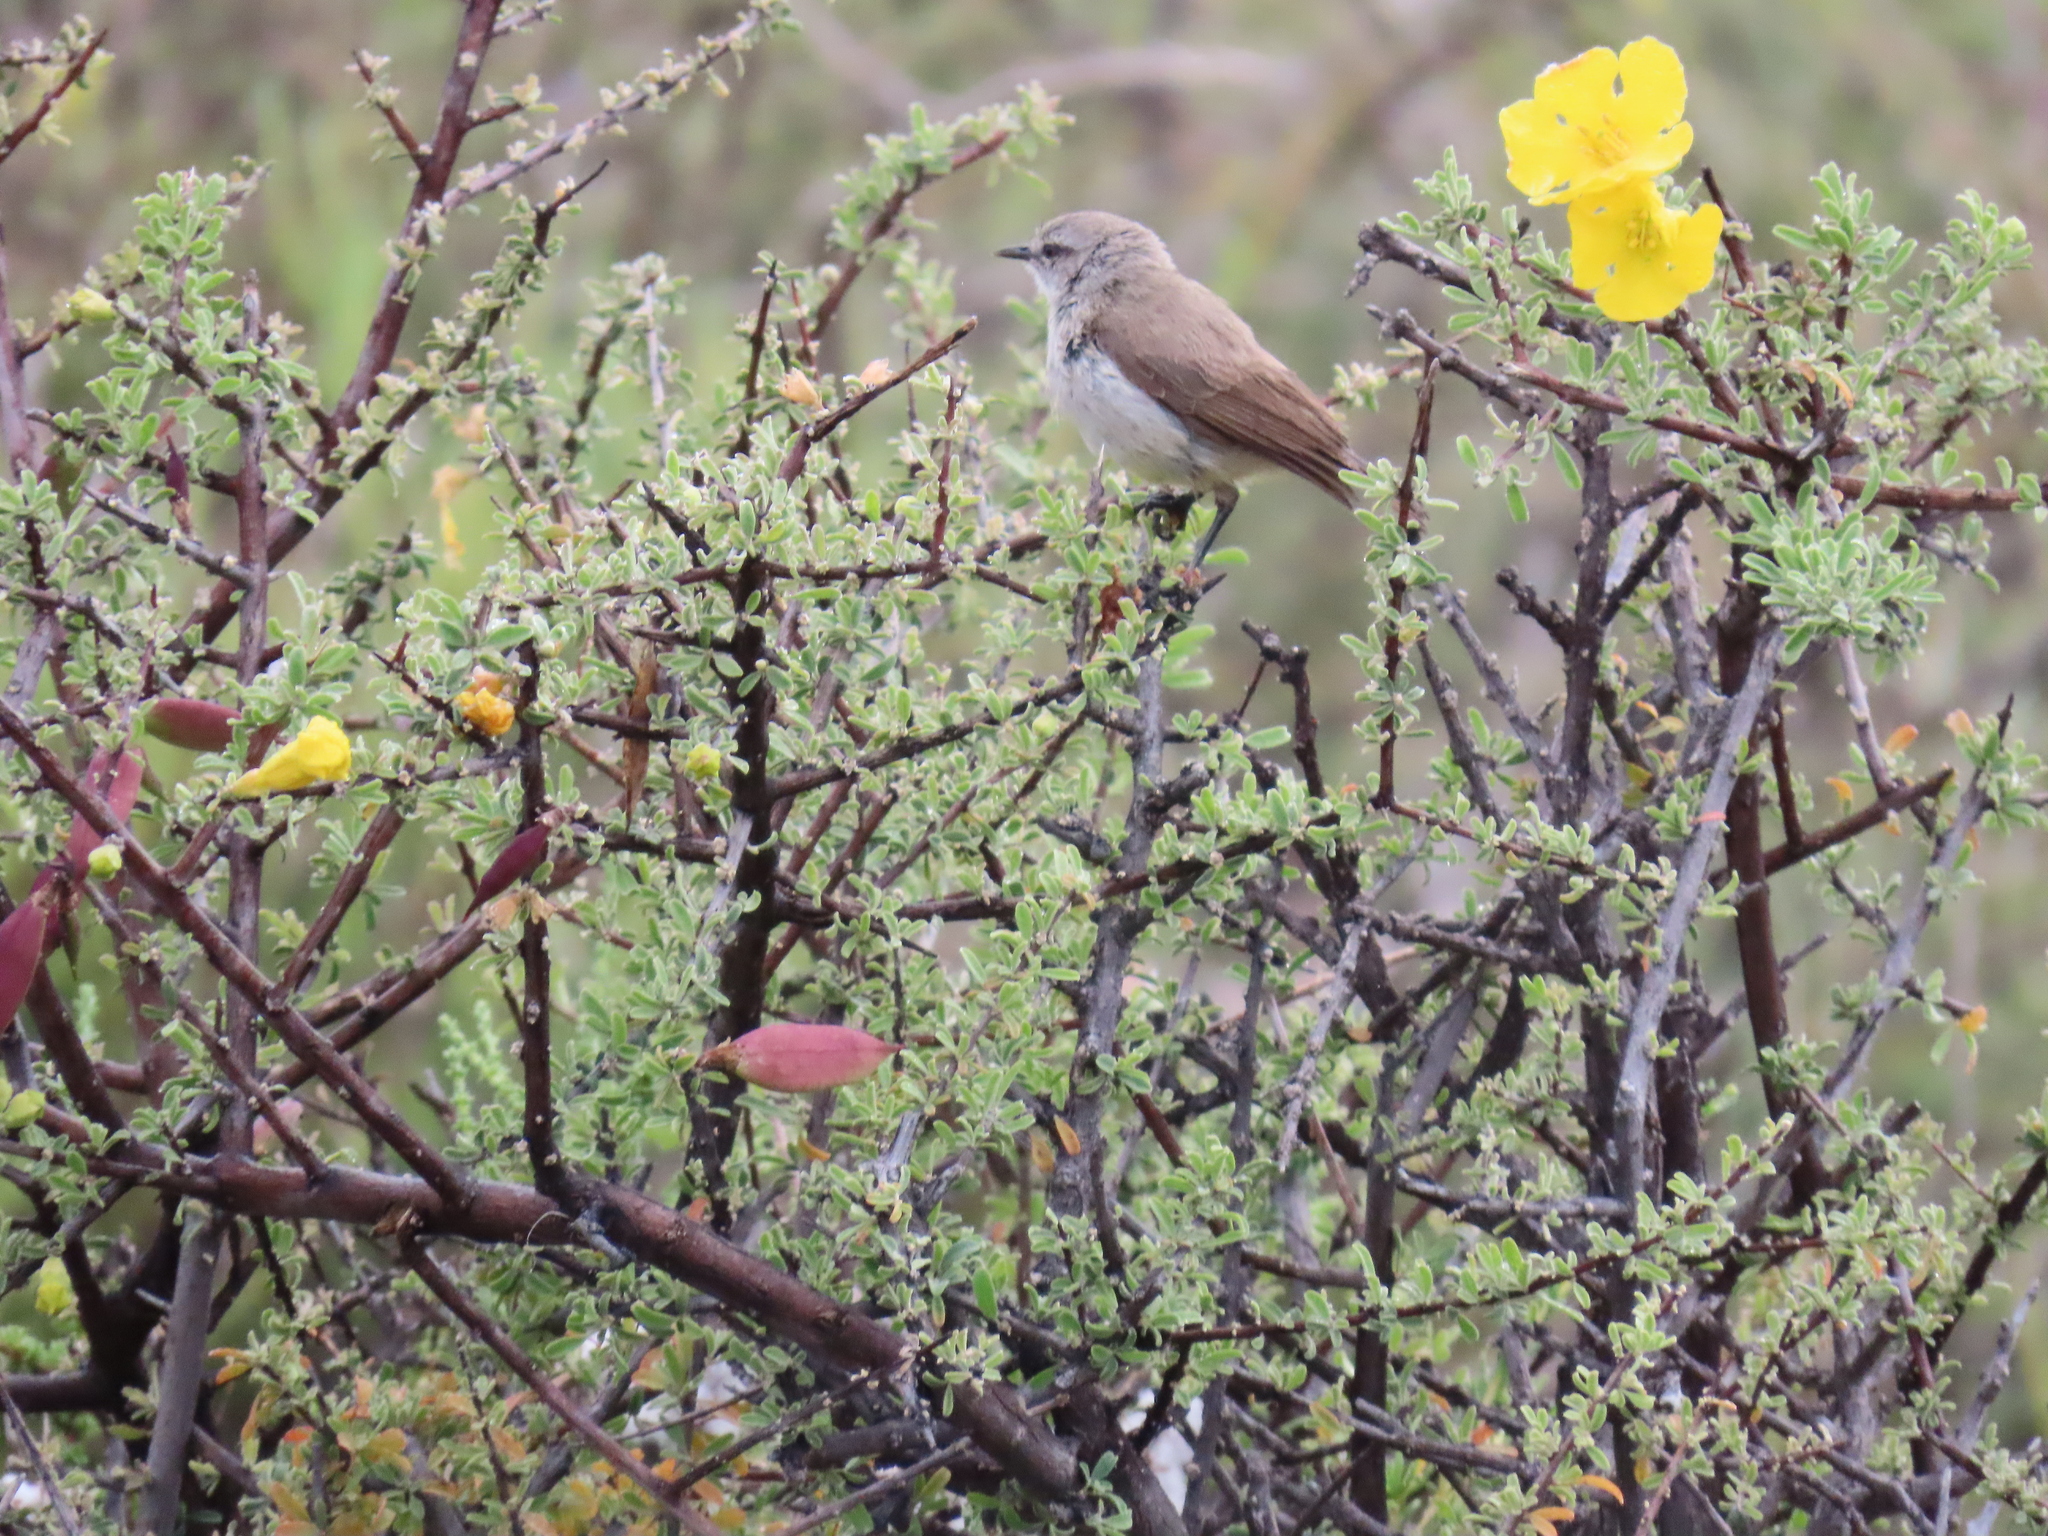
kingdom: Plantae
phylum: Tracheophyta
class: Magnoliopsida
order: Lamiales
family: Bignoniaceae
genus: Rhigozum
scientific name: Rhigozum obovatum
